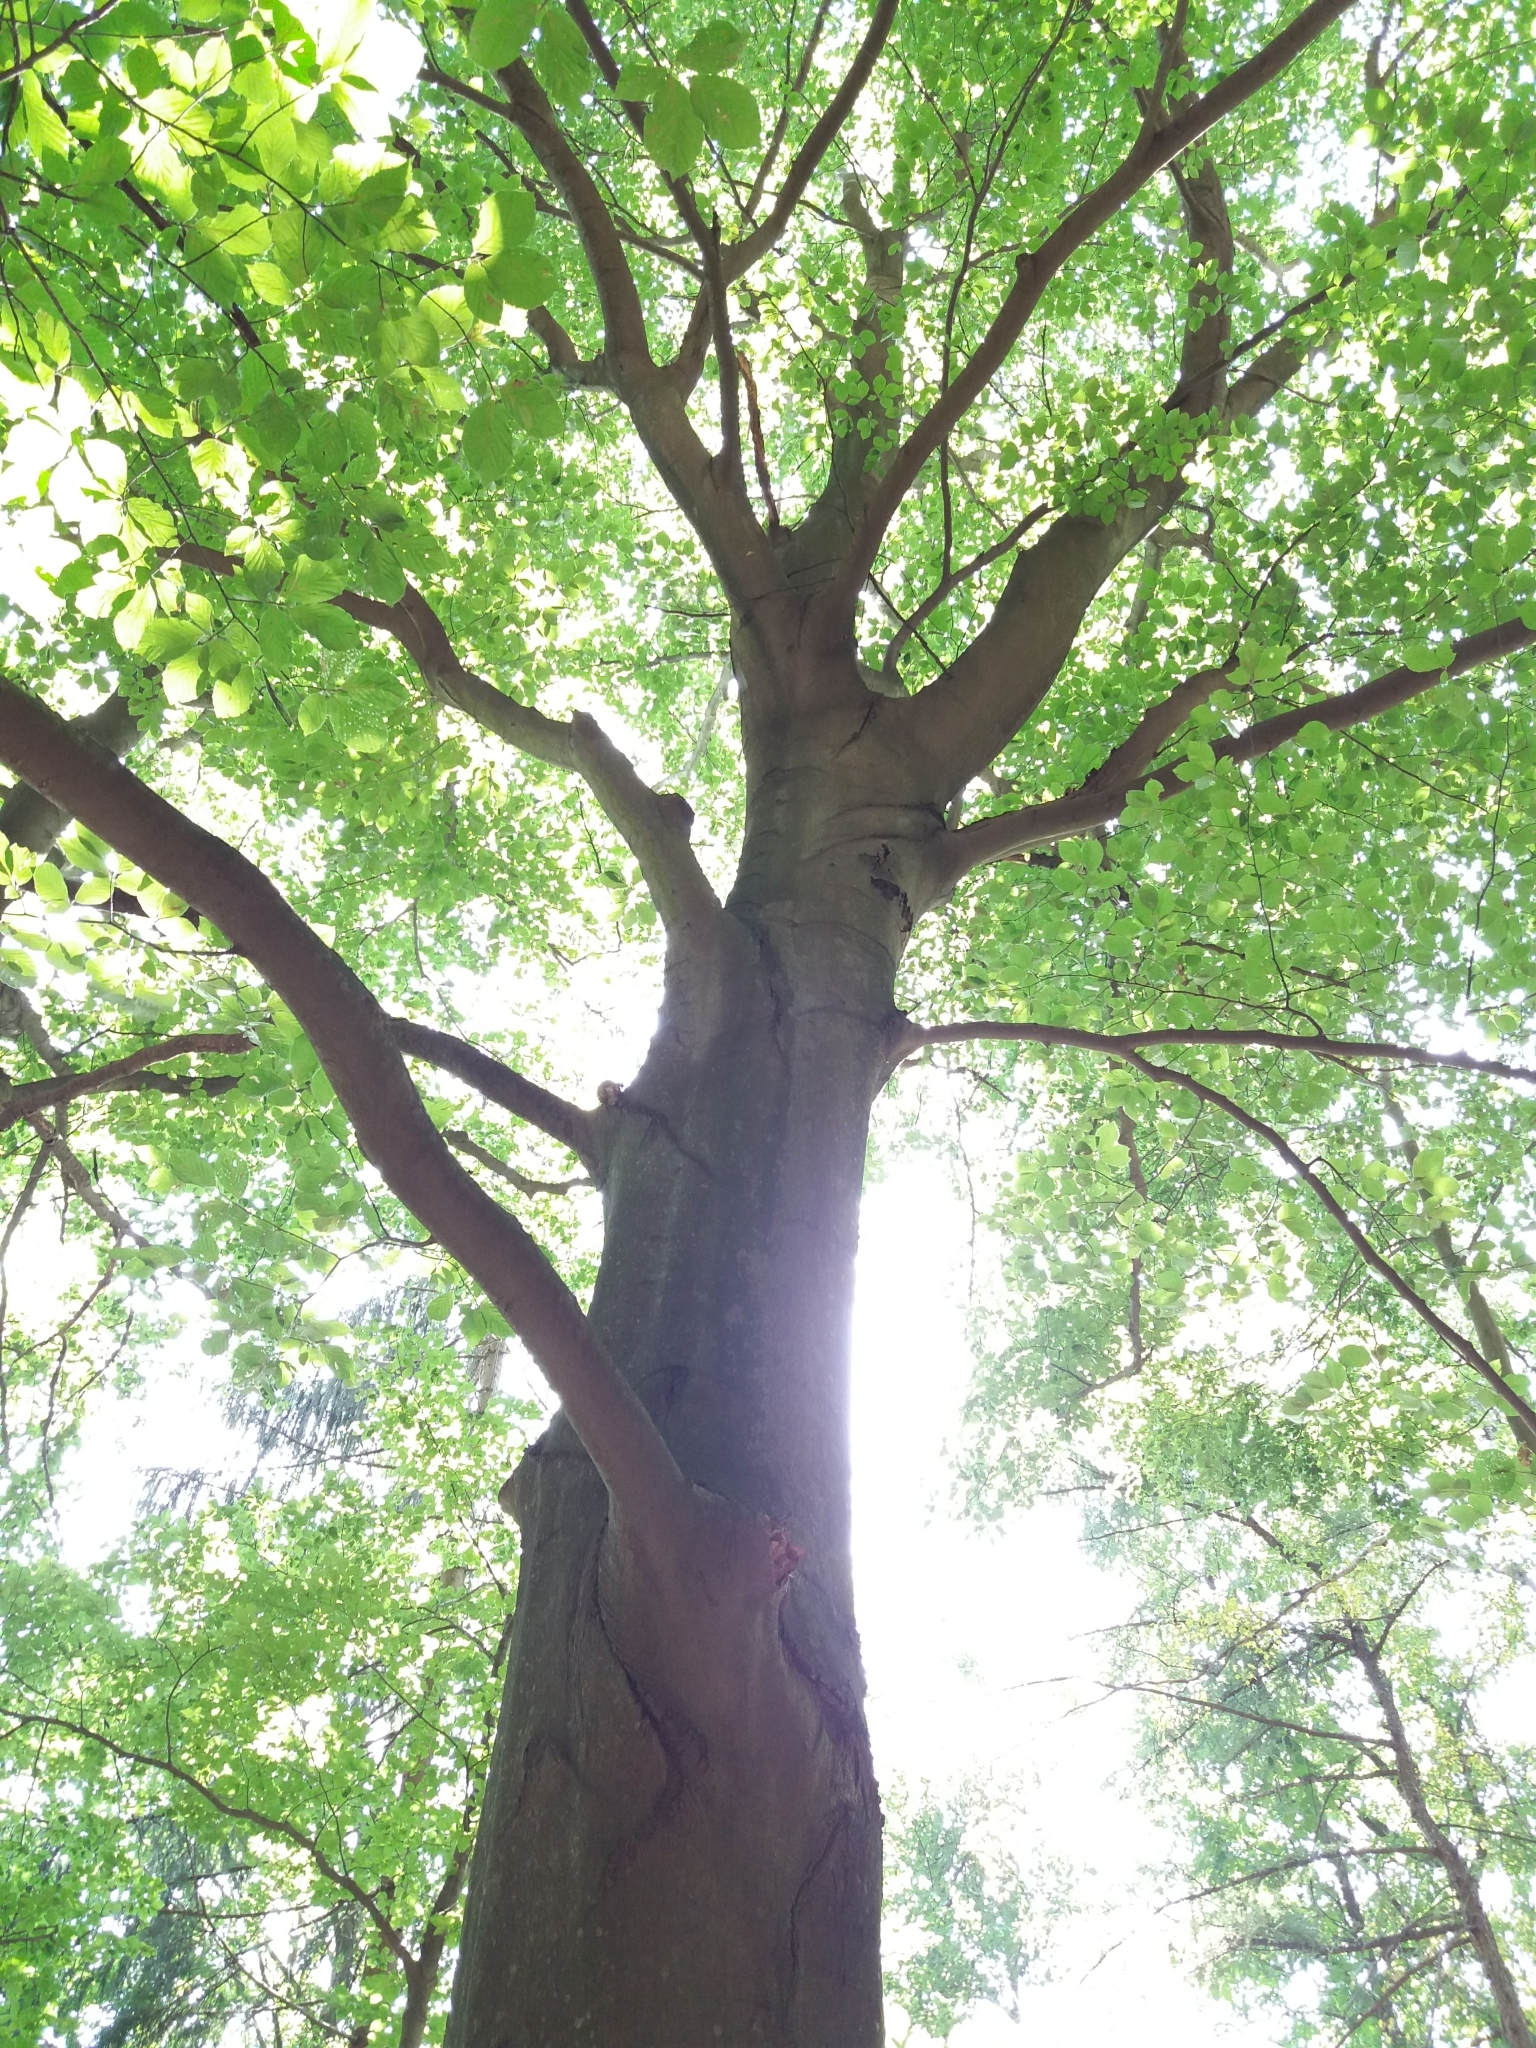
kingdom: Plantae
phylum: Tracheophyta
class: Magnoliopsida
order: Fagales
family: Fagaceae
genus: Fagus
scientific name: Fagus sylvatica
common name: Beech
